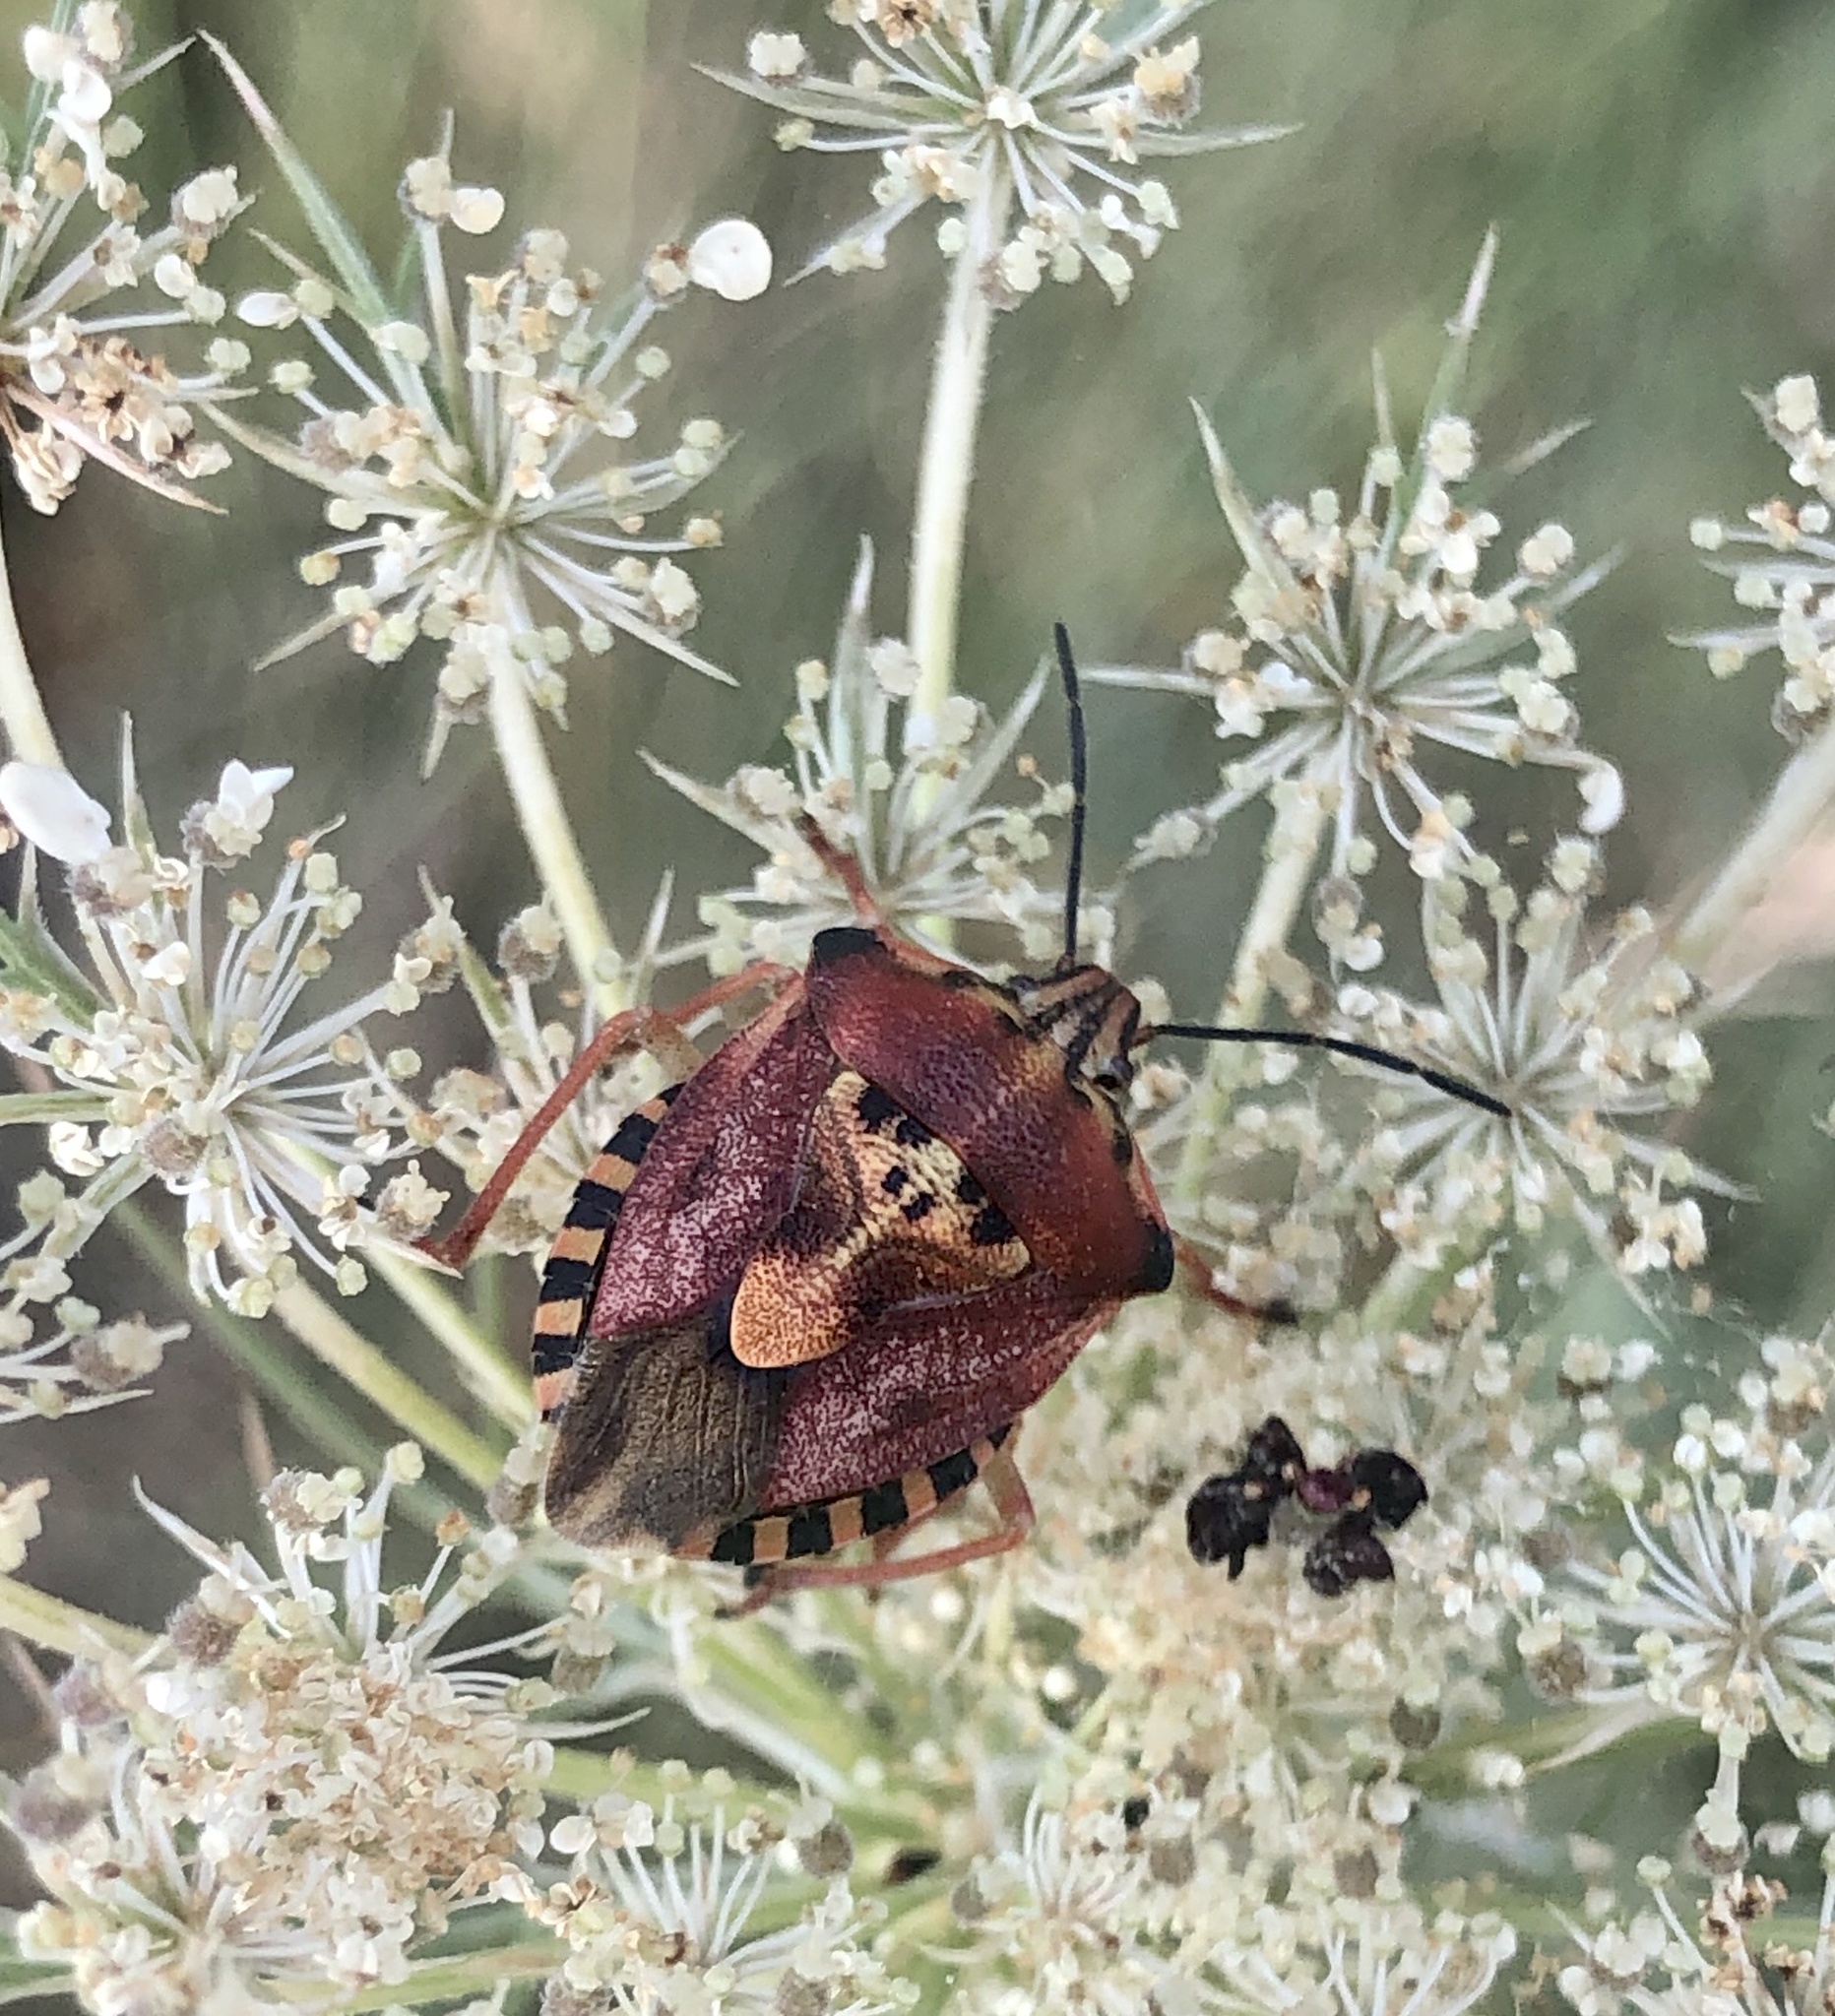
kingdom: Animalia
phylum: Arthropoda
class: Insecta
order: Hemiptera
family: Pentatomidae
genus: Carpocoris
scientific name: Carpocoris purpureipennis
